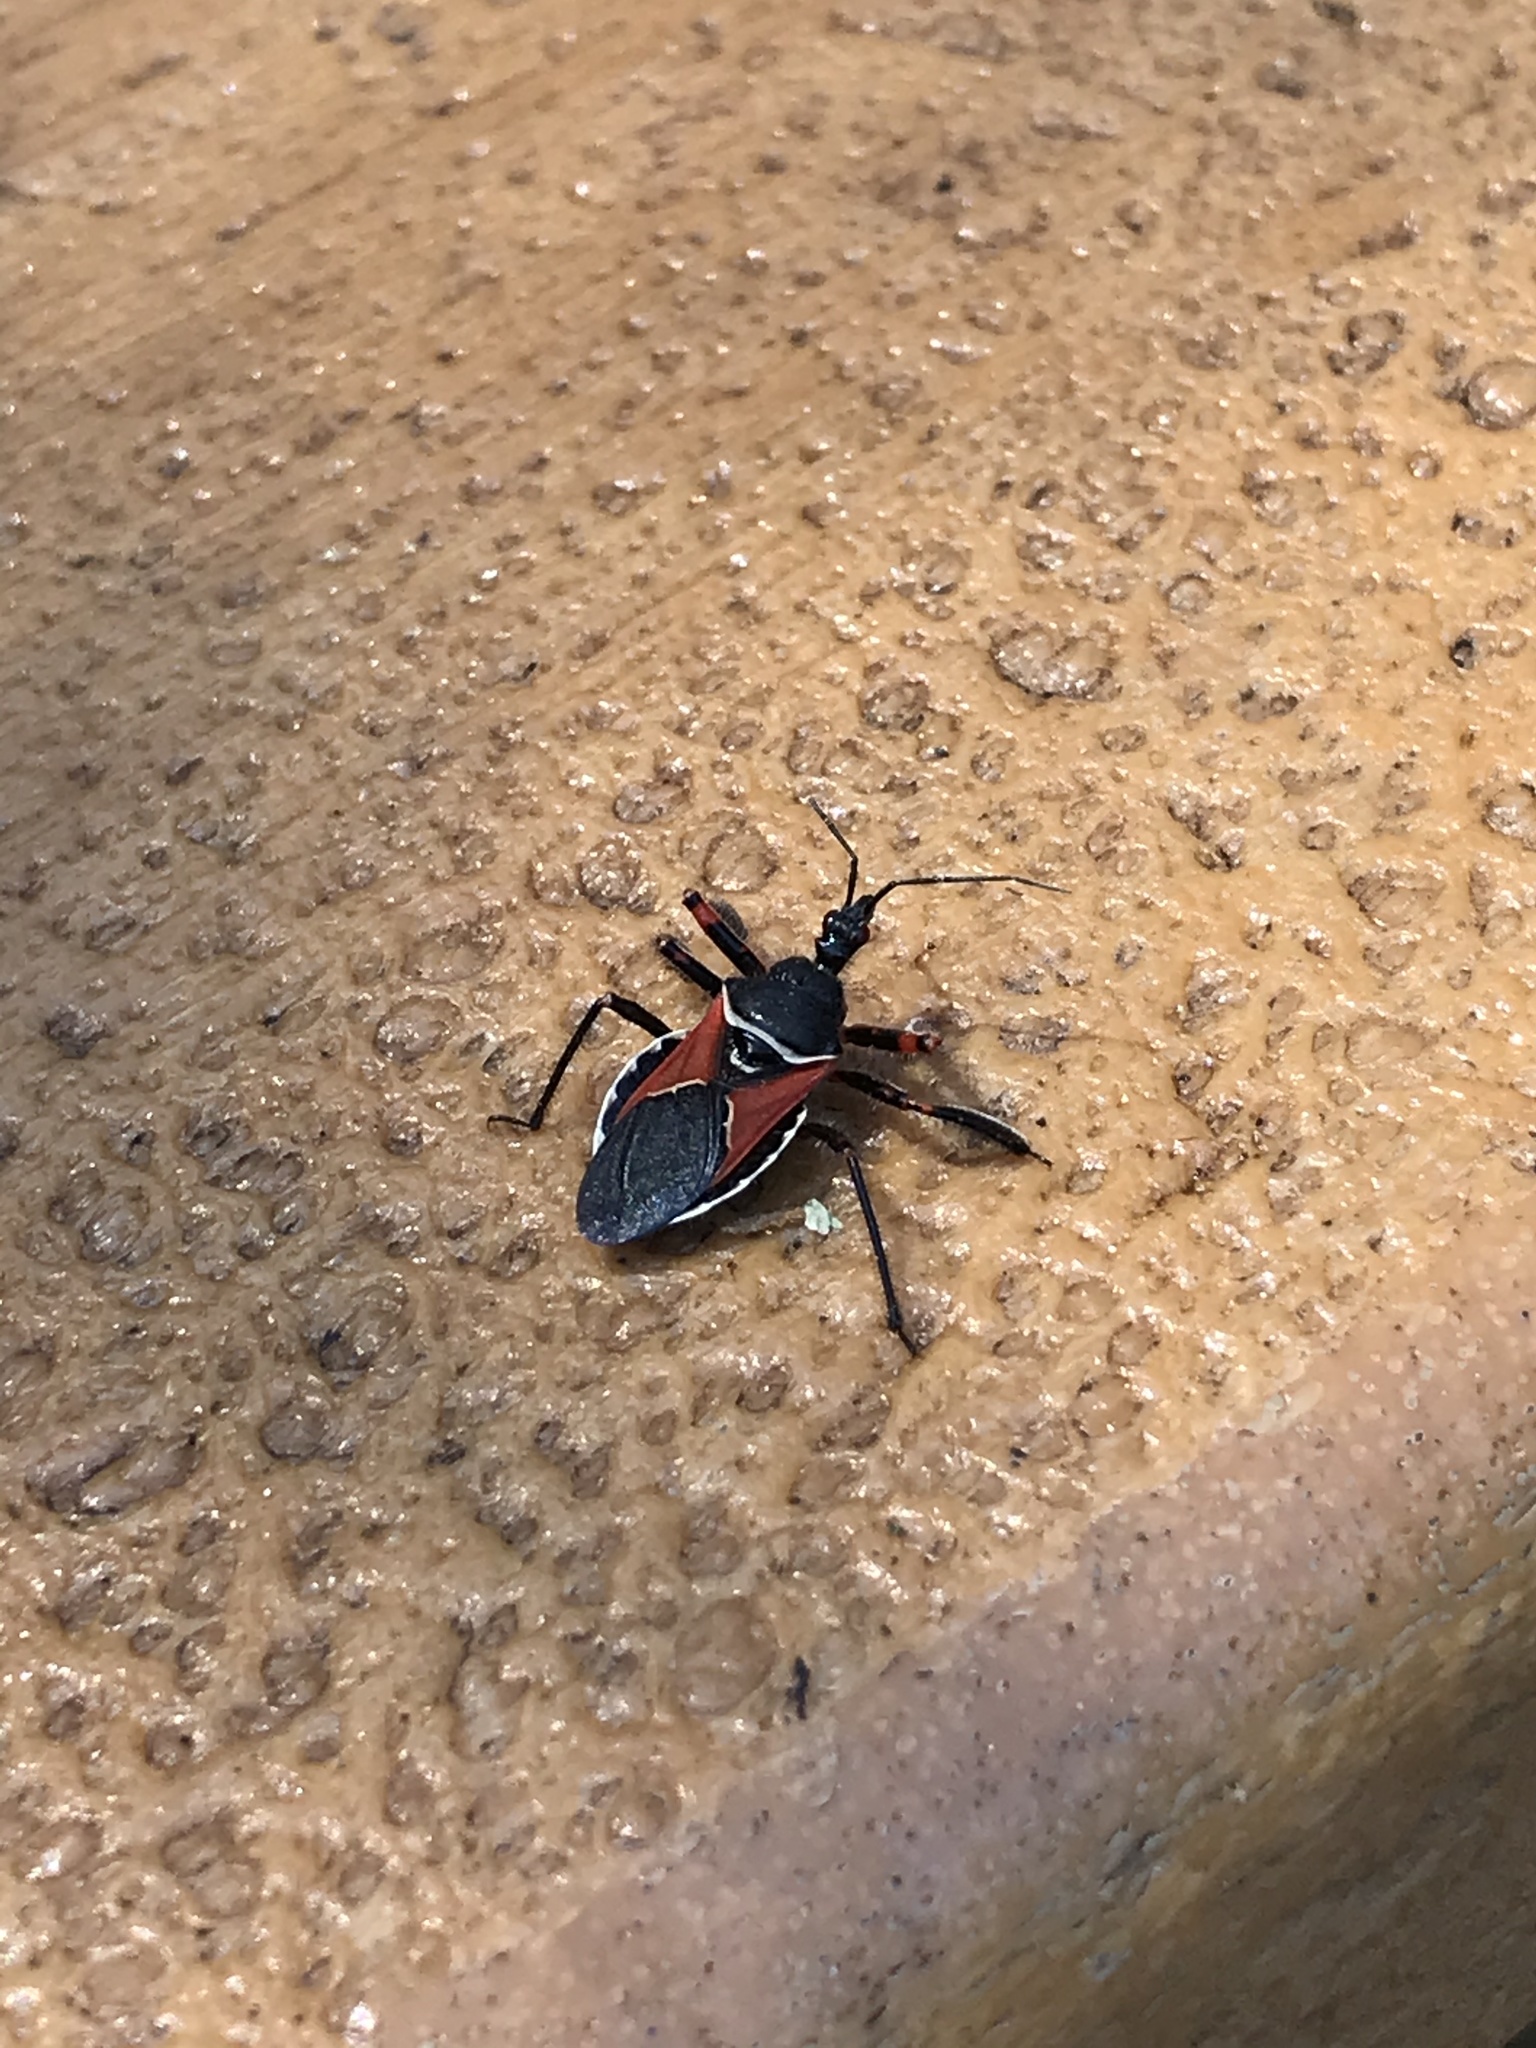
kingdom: Animalia
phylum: Arthropoda
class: Insecta
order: Hemiptera
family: Reduviidae
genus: Apiomerus
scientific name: Apiomerus californicus
